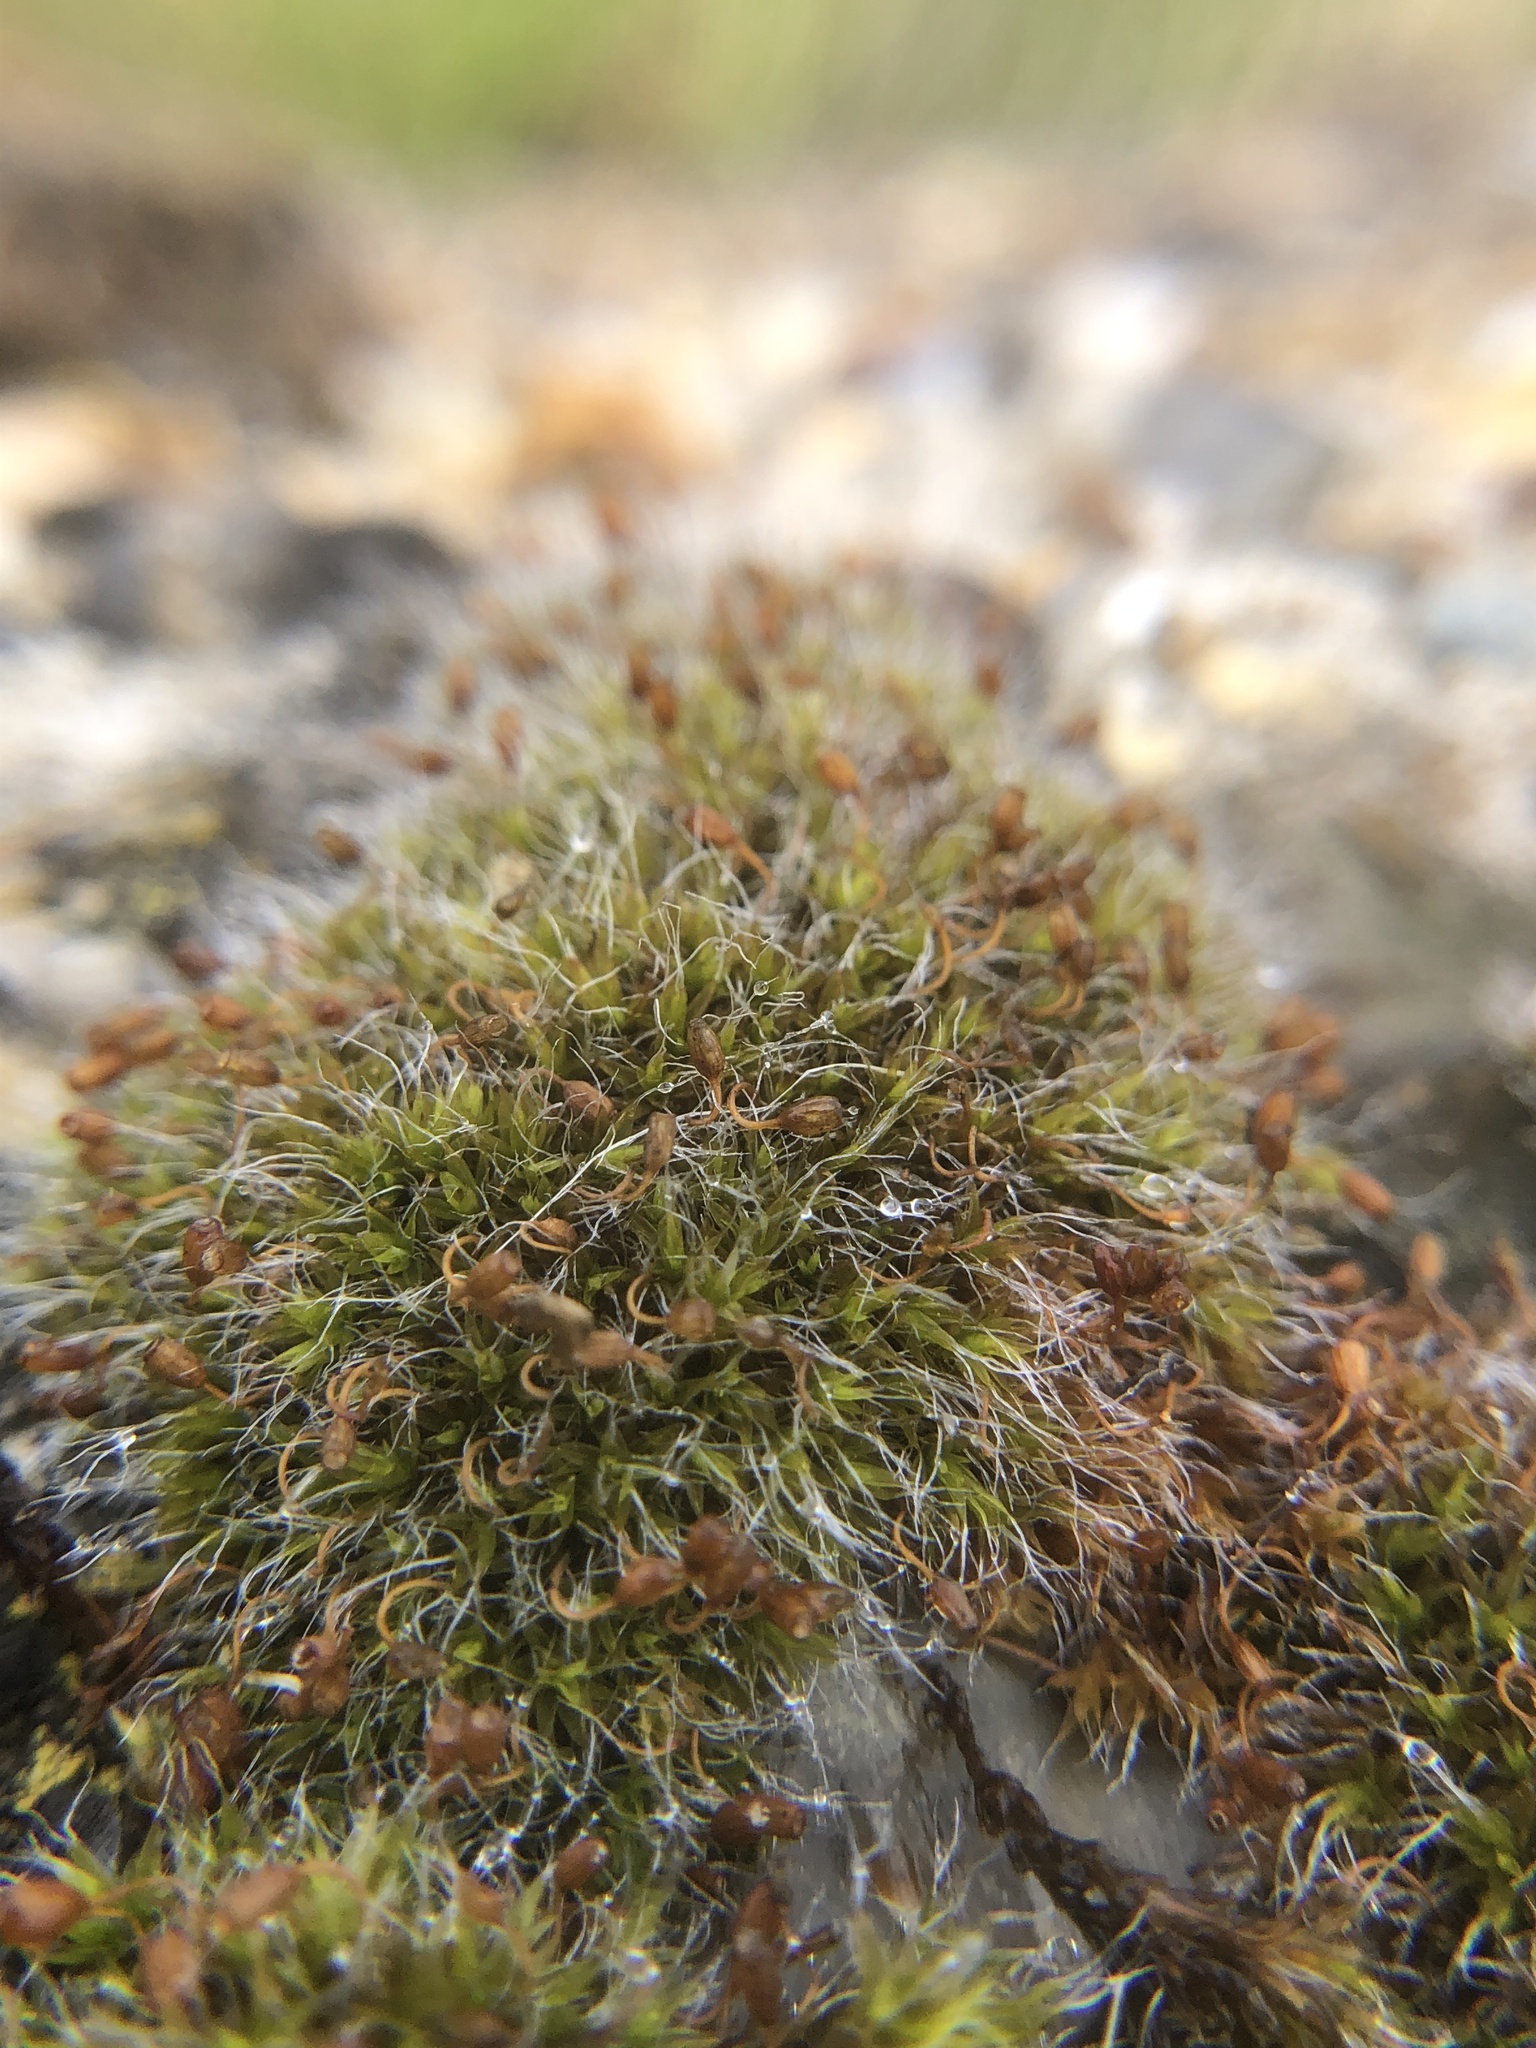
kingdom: Plantae
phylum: Bryophyta
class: Bryopsida
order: Grimmiales
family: Grimmiaceae
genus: Grimmia
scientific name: Grimmia pulvinata
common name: Grey-cushioned grimmia
